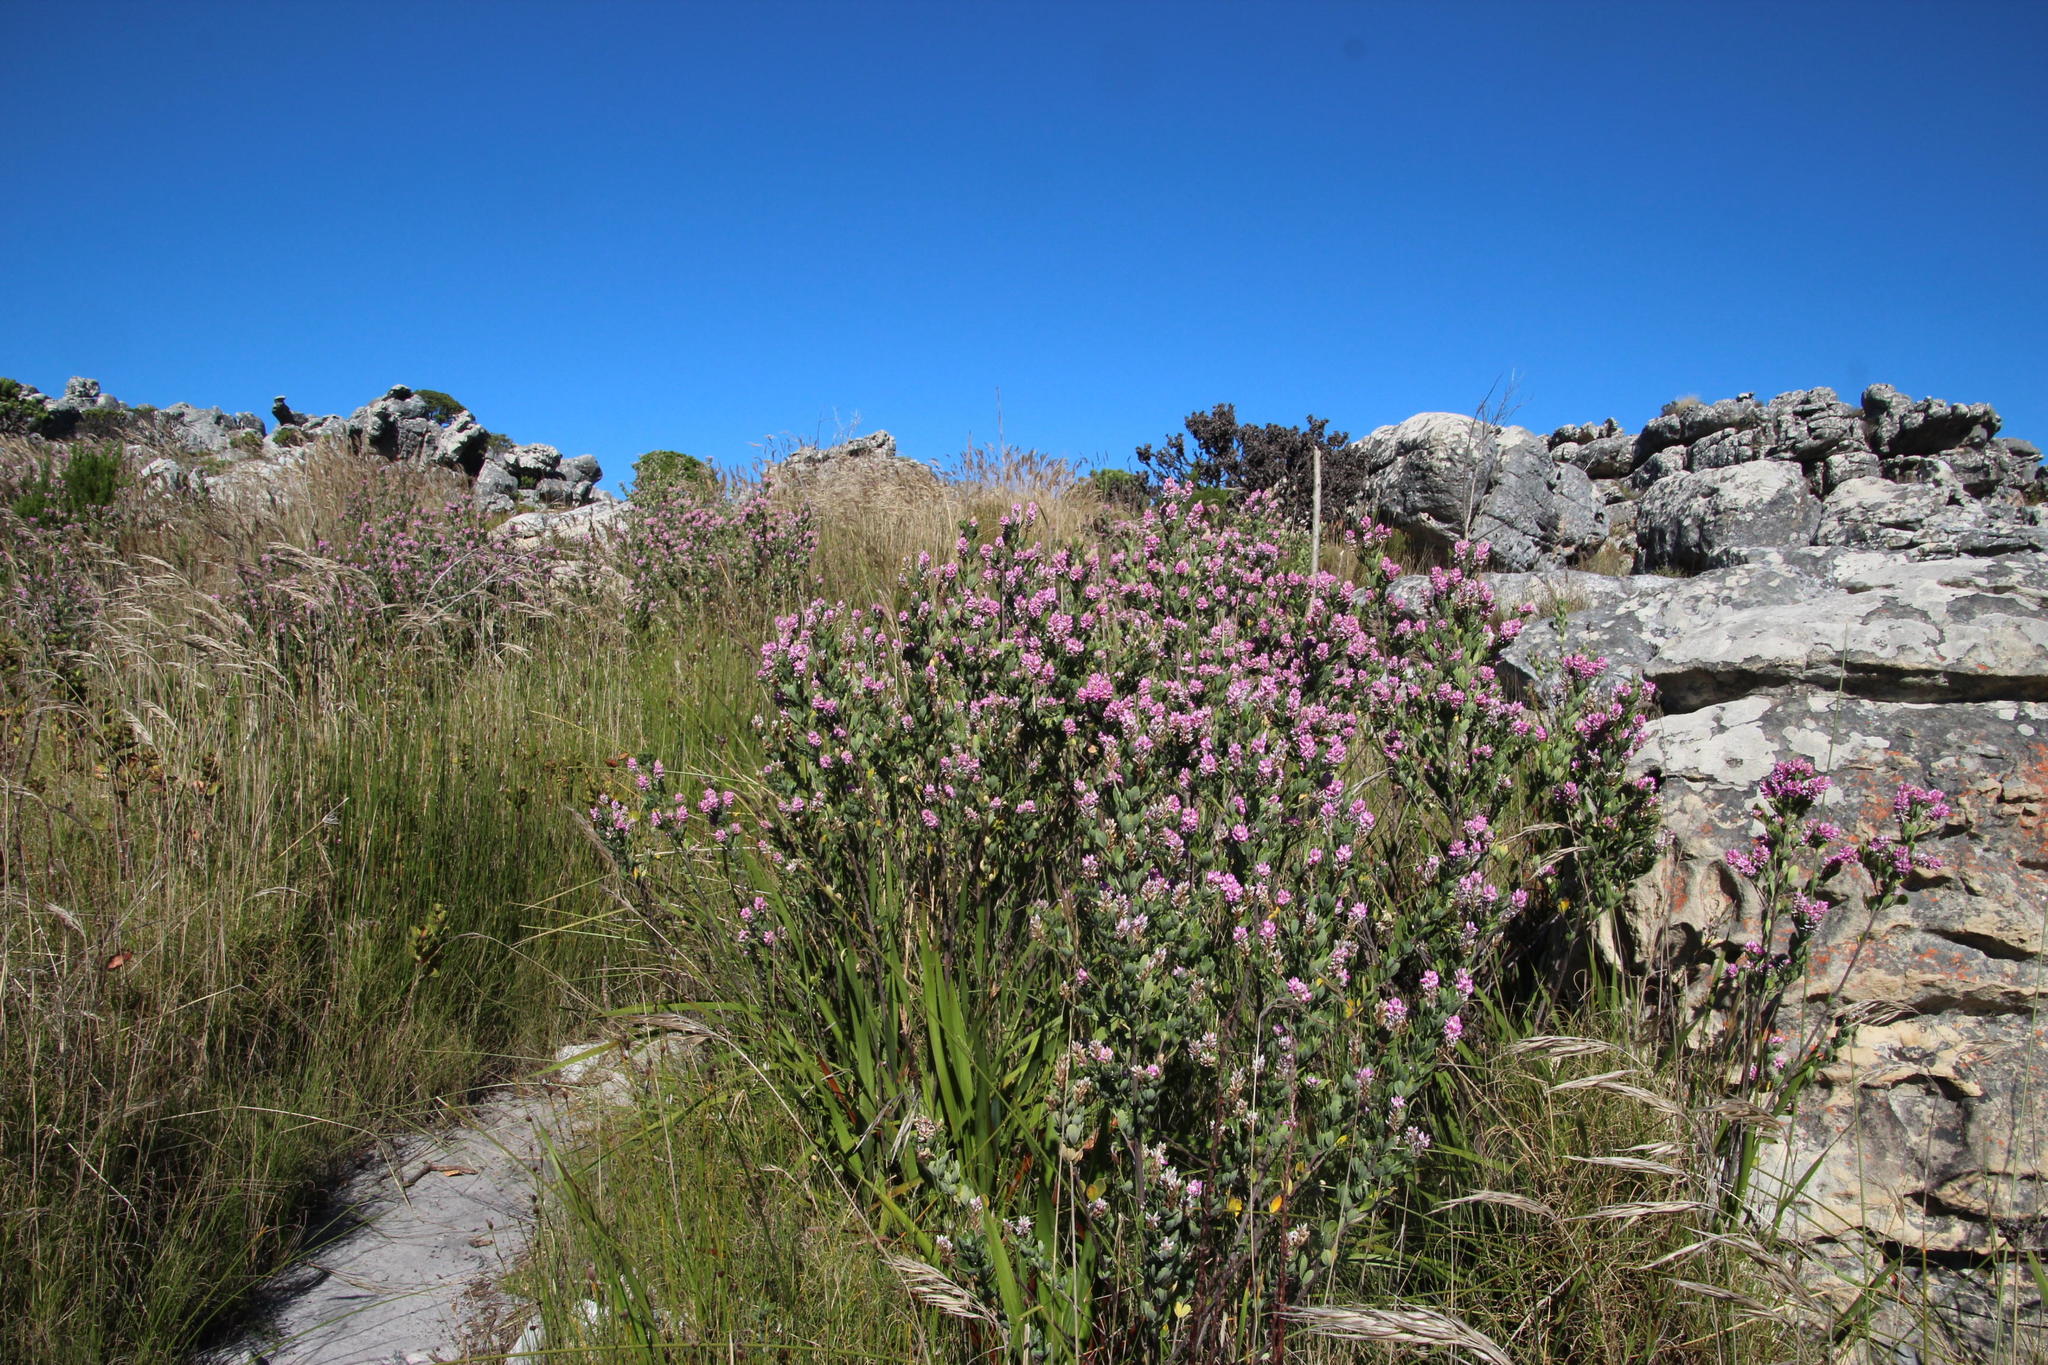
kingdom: Plantae
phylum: Tracheophyta
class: Magnoliopsida
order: Fabales
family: Fabaceae
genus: Indigofera
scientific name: Indigofera cytisoides
